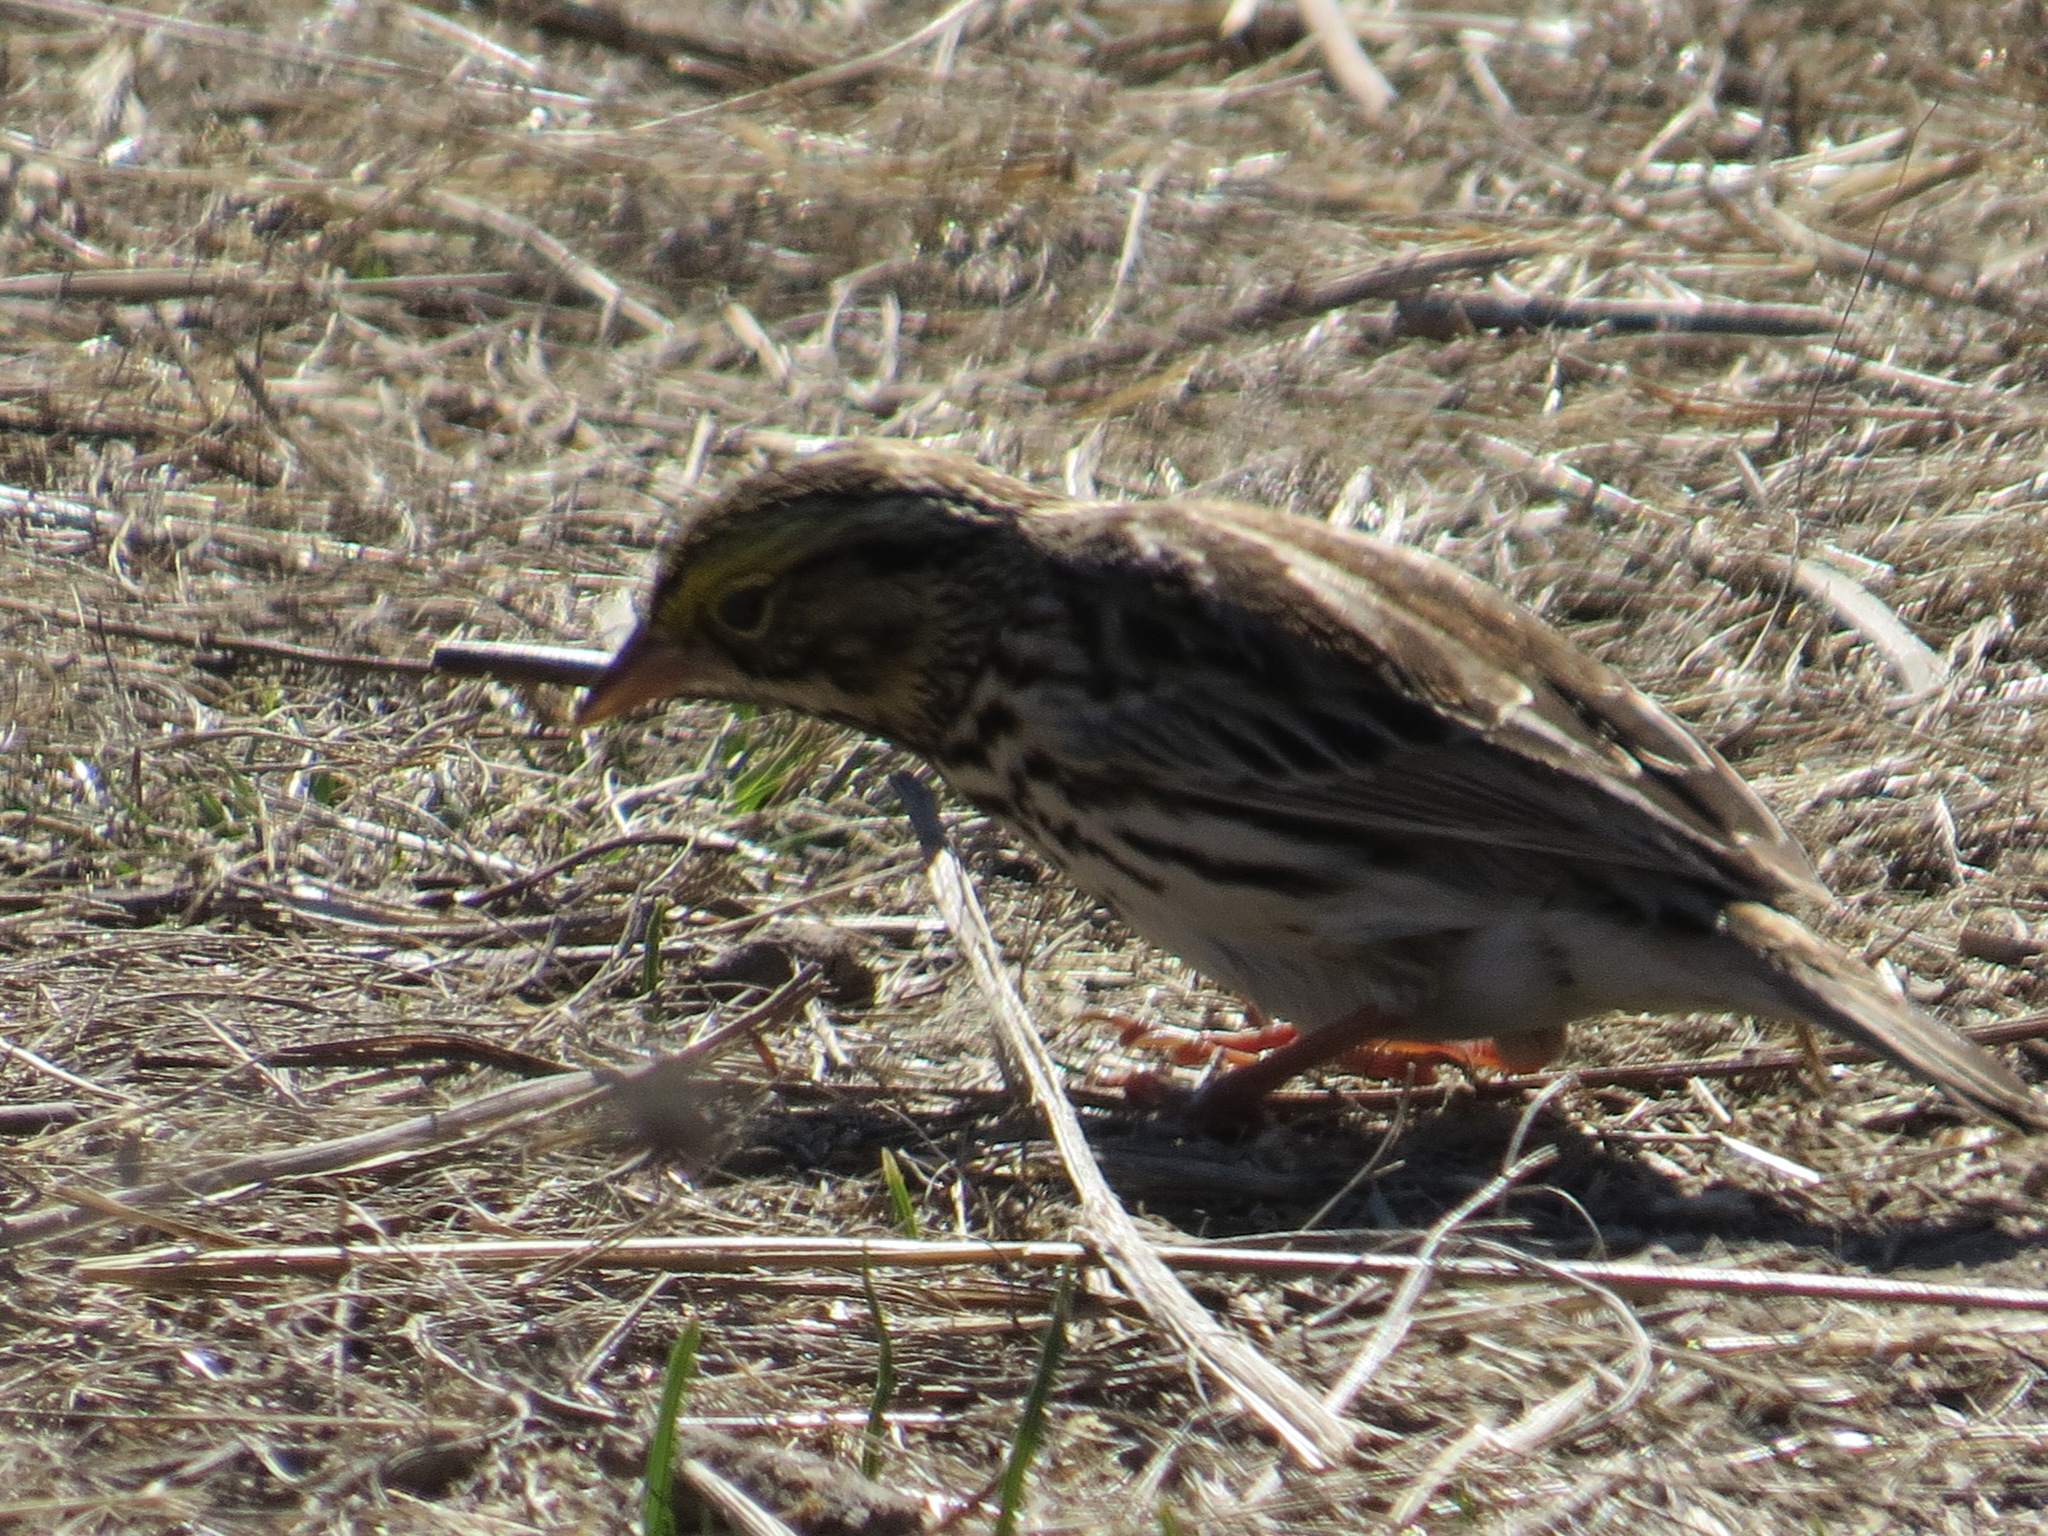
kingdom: Animalia
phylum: Chordata
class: Aves
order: Passeriformes
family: Passerellidae
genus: Passerculus
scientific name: Passerculus sandwichensis
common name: Savannah sparrow
